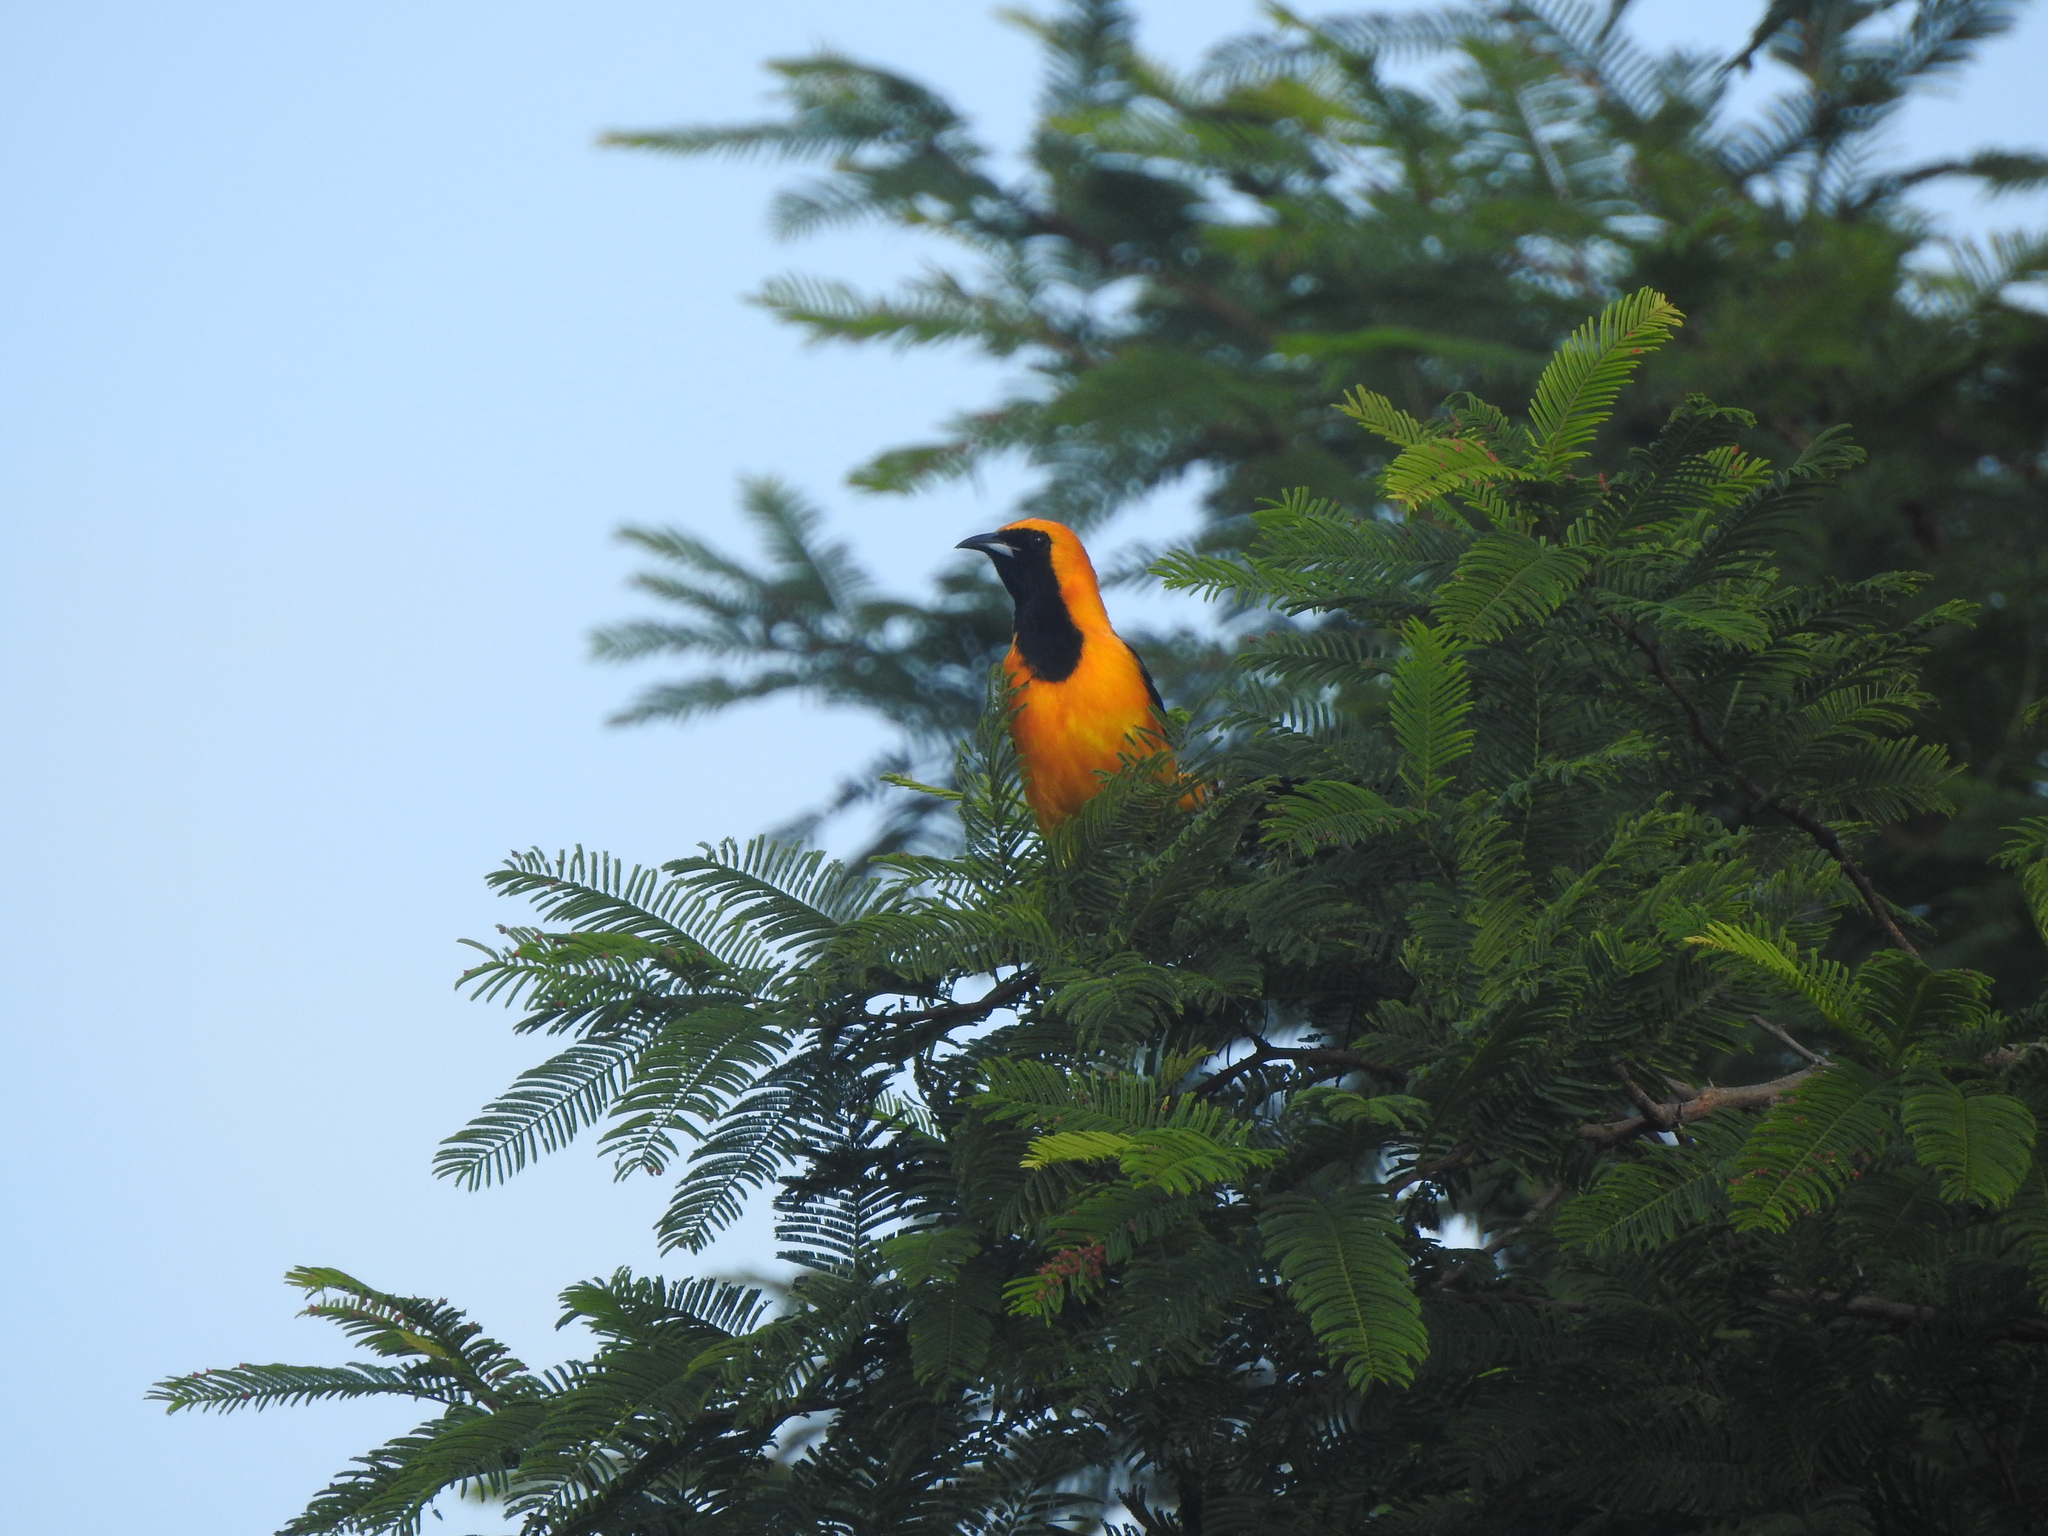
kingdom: Animalia
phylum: Chordata
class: Aves
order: Passeriformes
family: Icteridae
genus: Icterus
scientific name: Icterus cucullatus
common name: Hooded oriole
